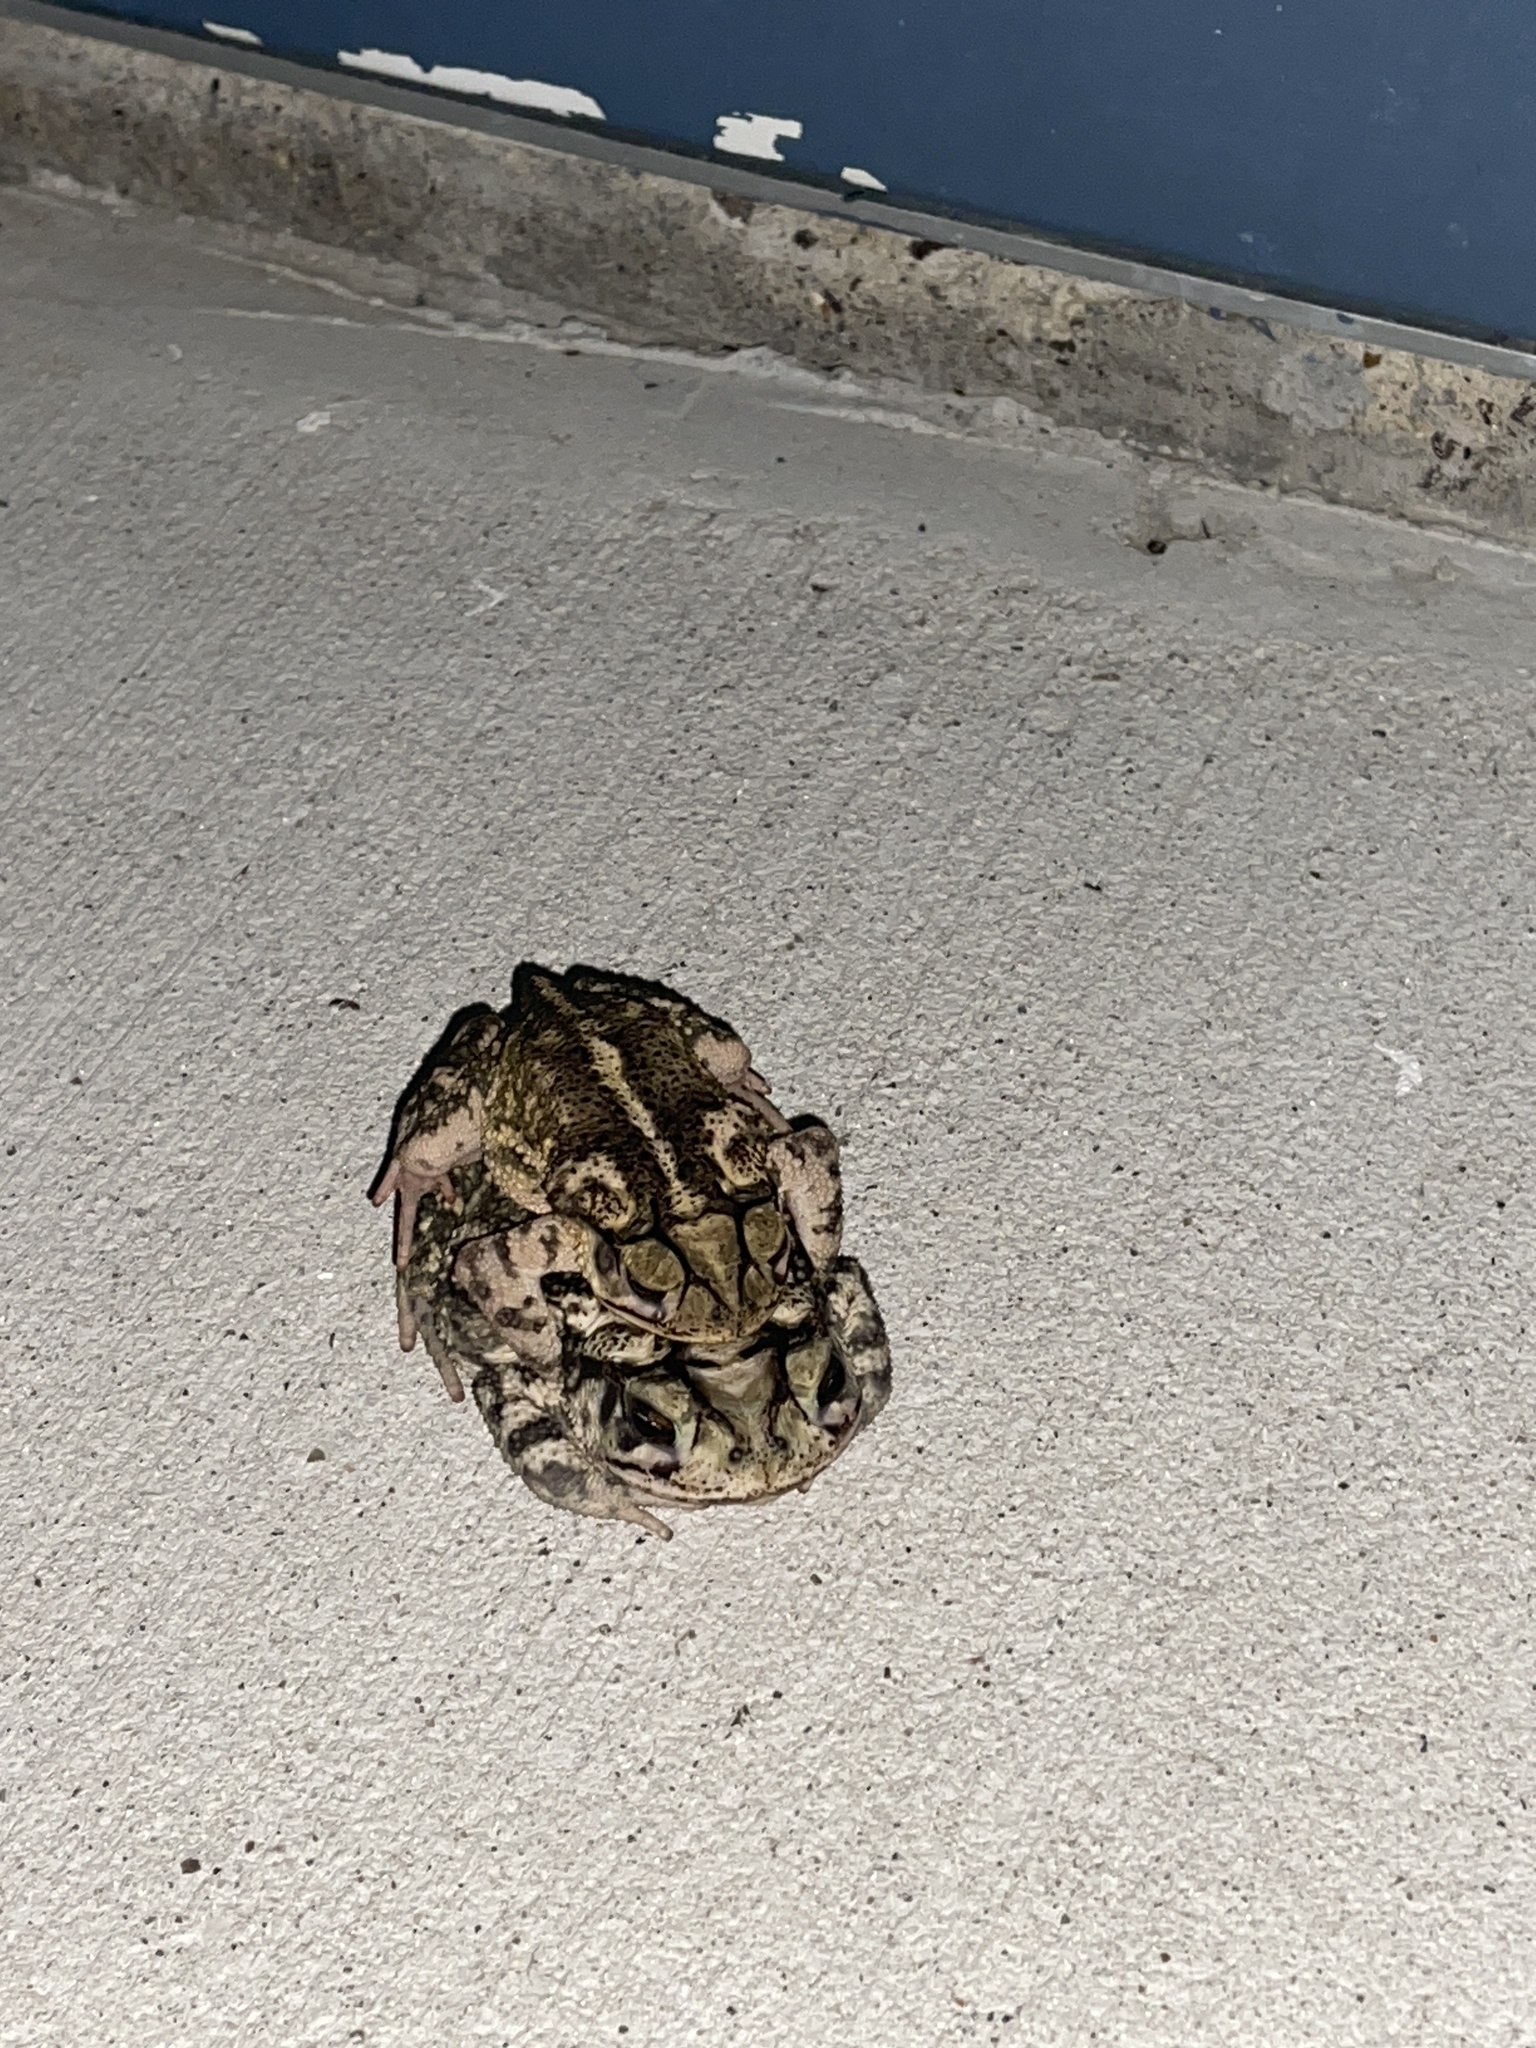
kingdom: Animalia
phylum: Chordata
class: Amphibia
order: Anura
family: Bufonidae
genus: Incilius
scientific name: Incilius nebulifer
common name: Gulf coast toad
